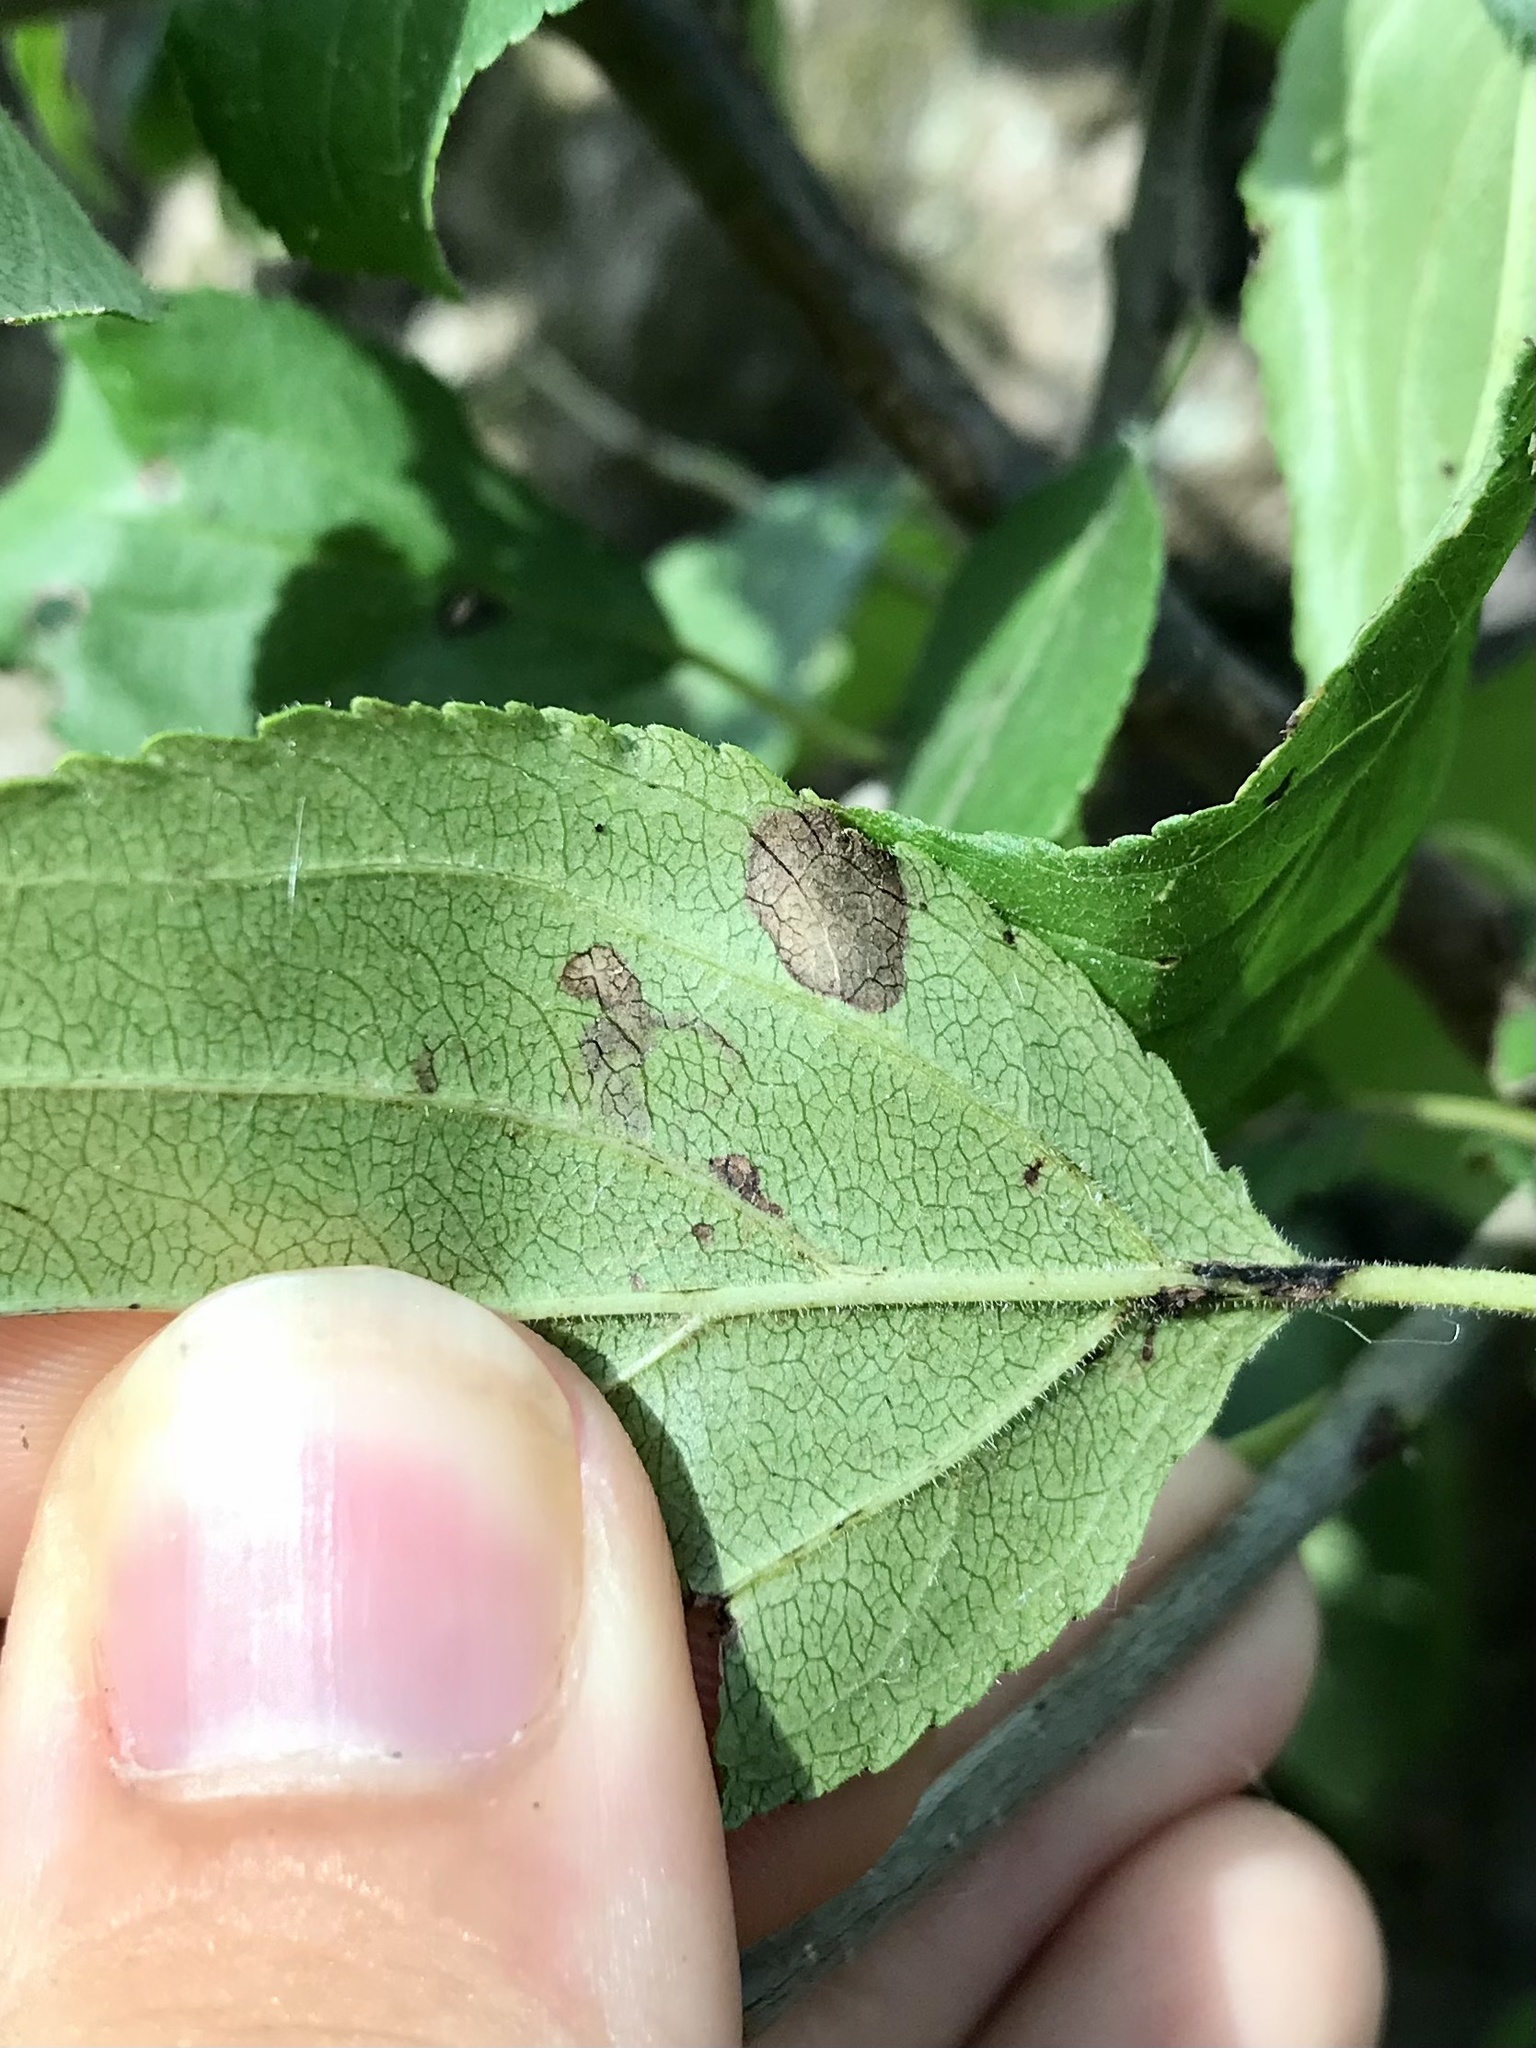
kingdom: Animalia
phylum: Arthropoda
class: Insecta
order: Lepidoptera
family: Nepticulidae
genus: Stigmella
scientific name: Stigmella rhamnicola
